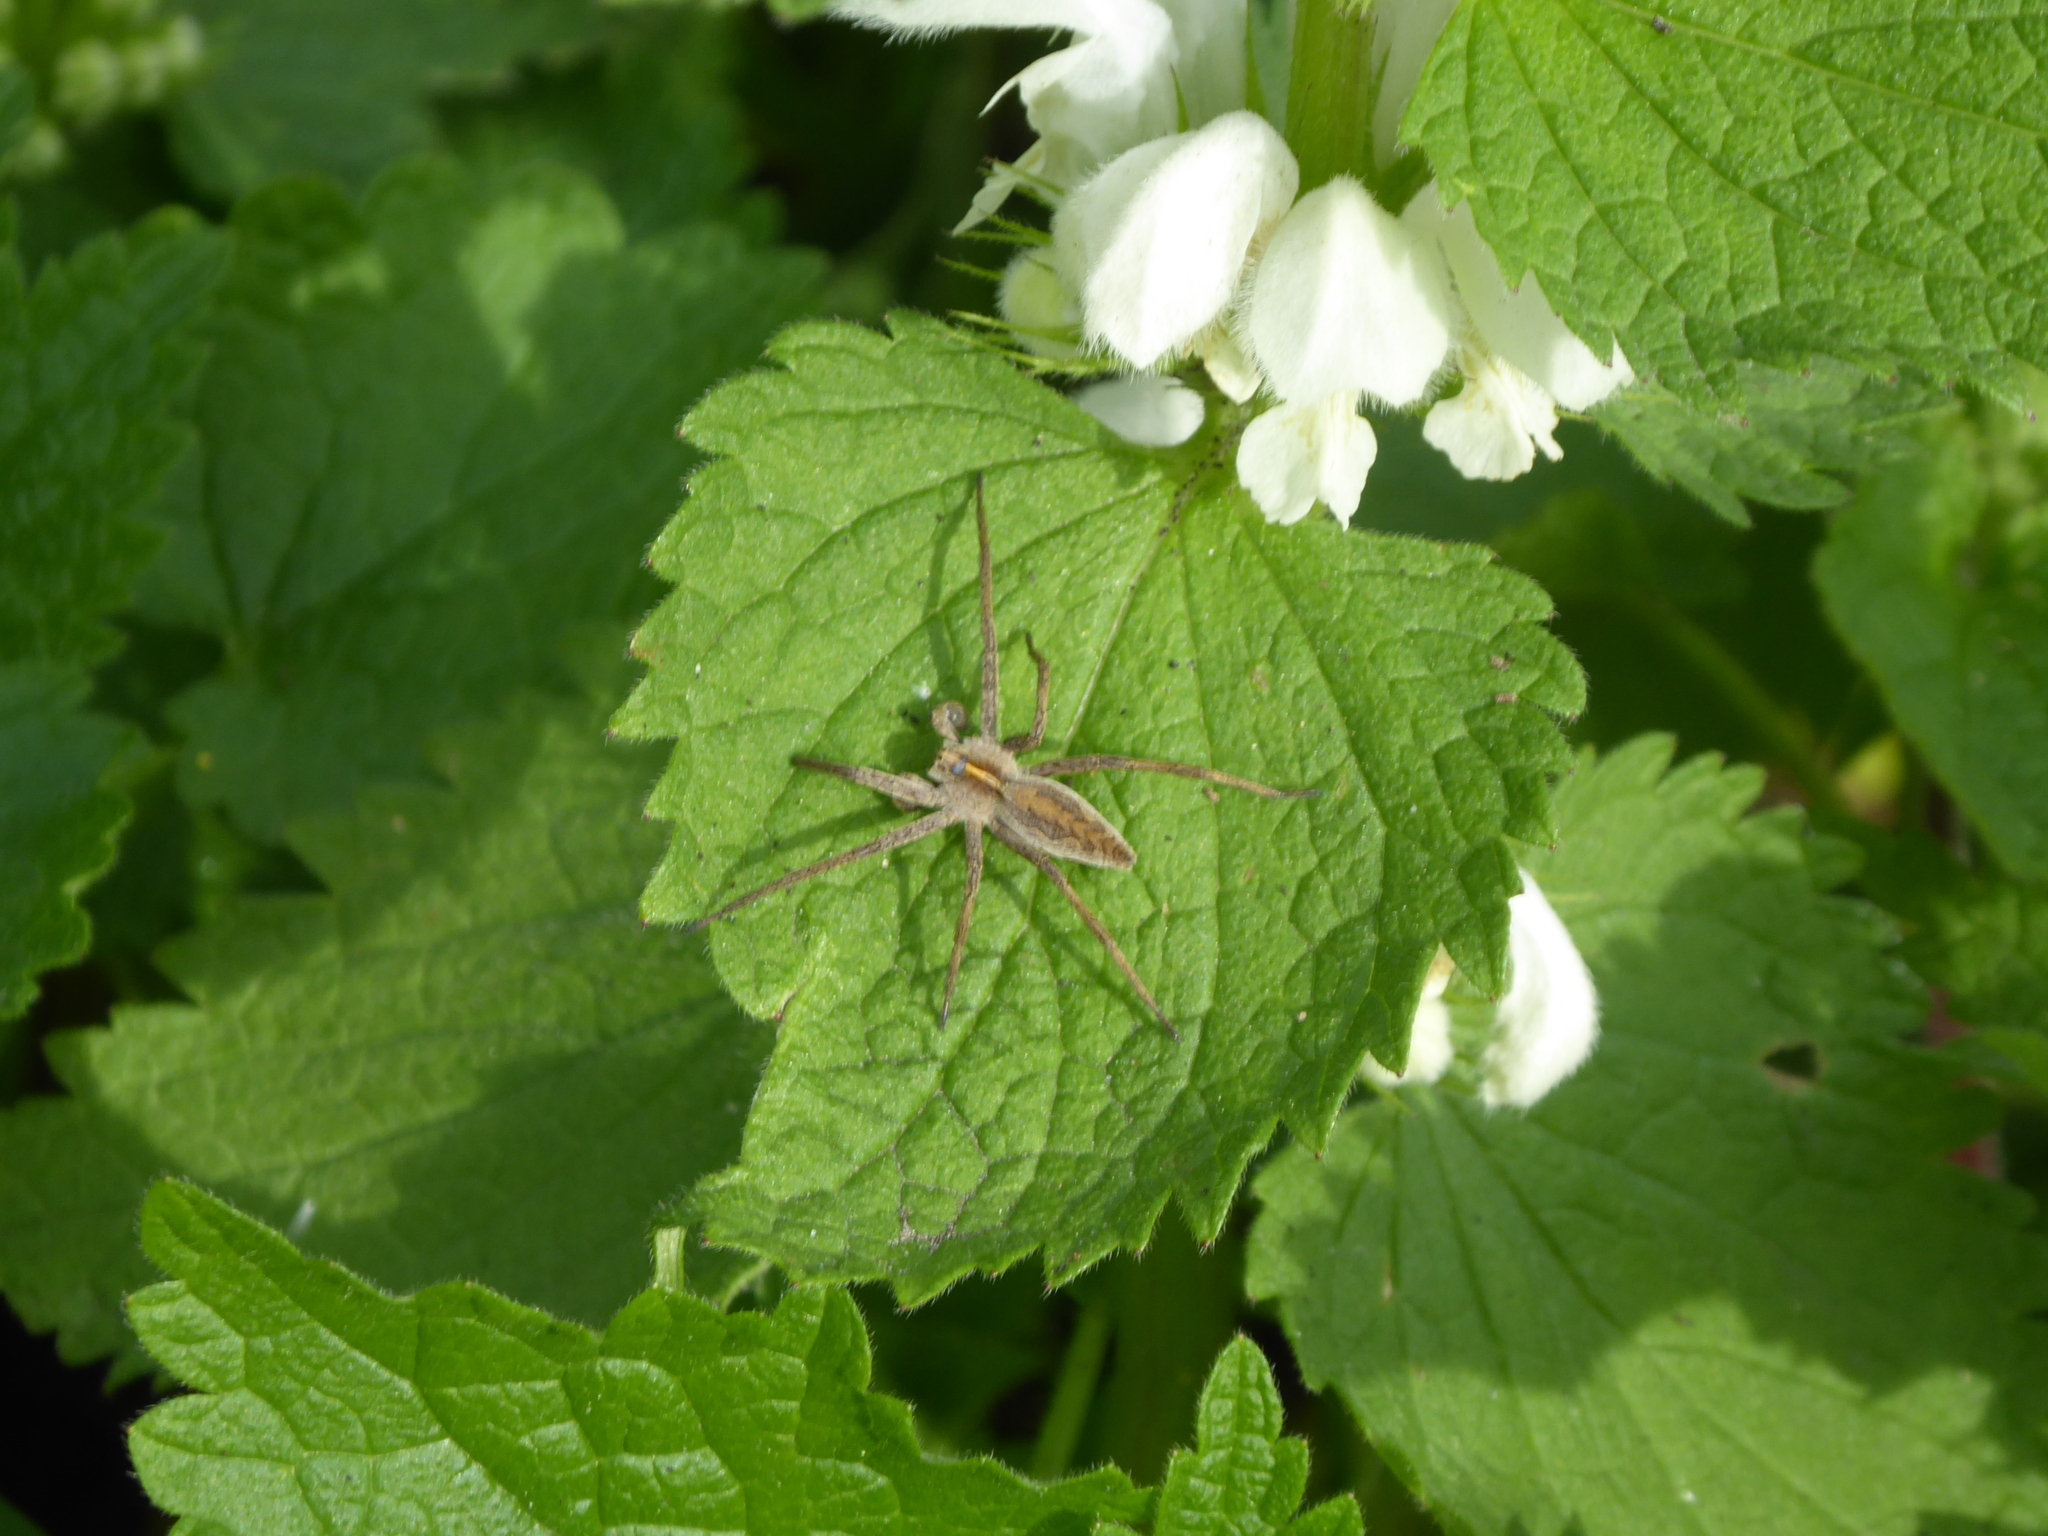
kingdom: Animalia
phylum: Arthropoda
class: Arachnida
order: Araneae
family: Pisauridae
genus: Pisaura
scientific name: Pisaura mirabilis
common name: Tent spider
